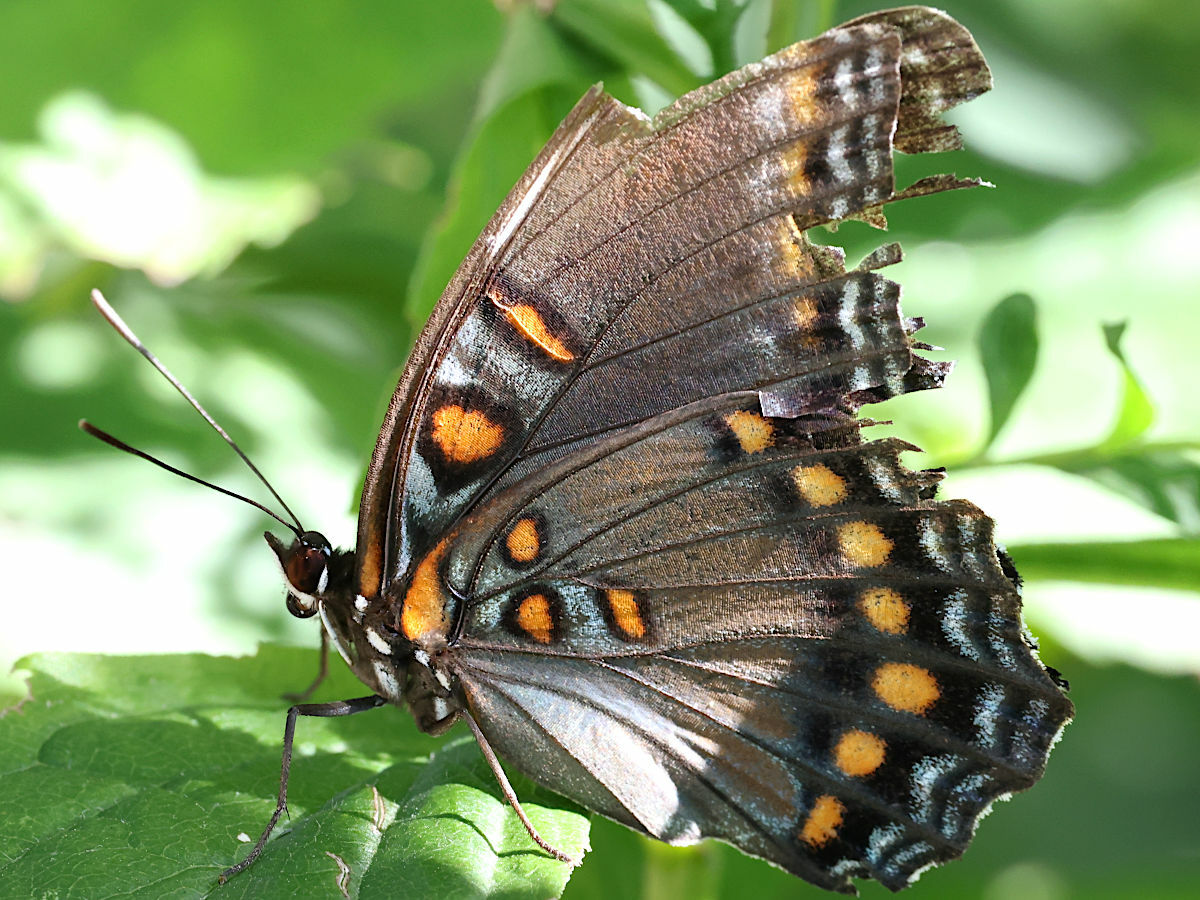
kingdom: Animalia
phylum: Arthropoda
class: Insecta
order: Lepidoptera
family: Nymphalidae
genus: Limenitis
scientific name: Limenitis arthemis
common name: Red-spotted admiral
